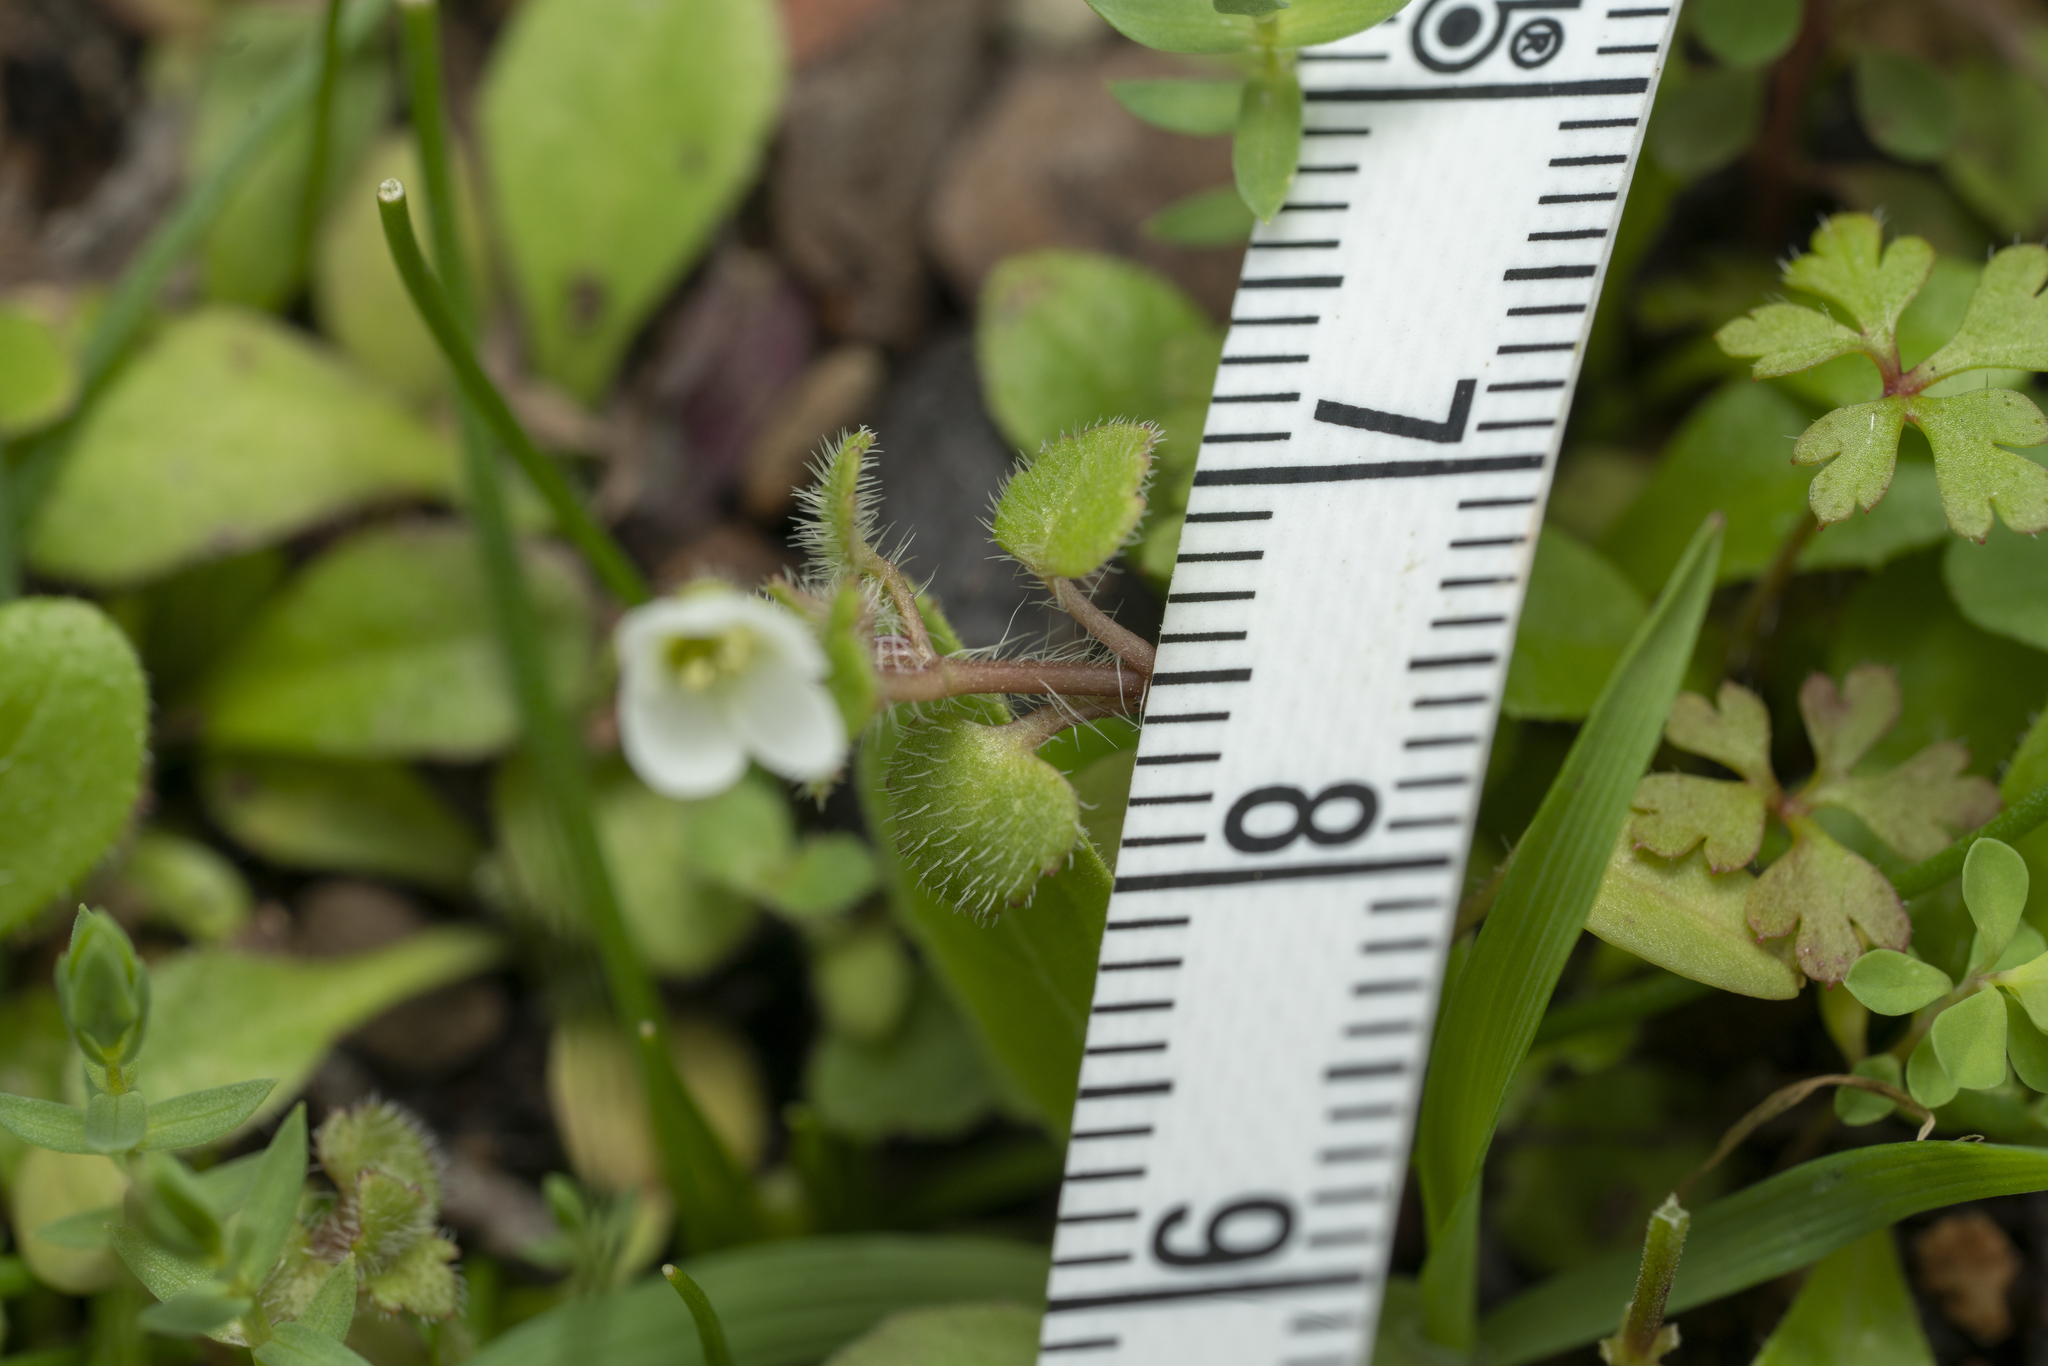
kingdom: Plantae
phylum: Tracheophyta
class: Magnoliopsida
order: Lamiales
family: Plantaginaceae
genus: Veronica
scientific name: Veronica cymbalaria
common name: Pale speedwell
